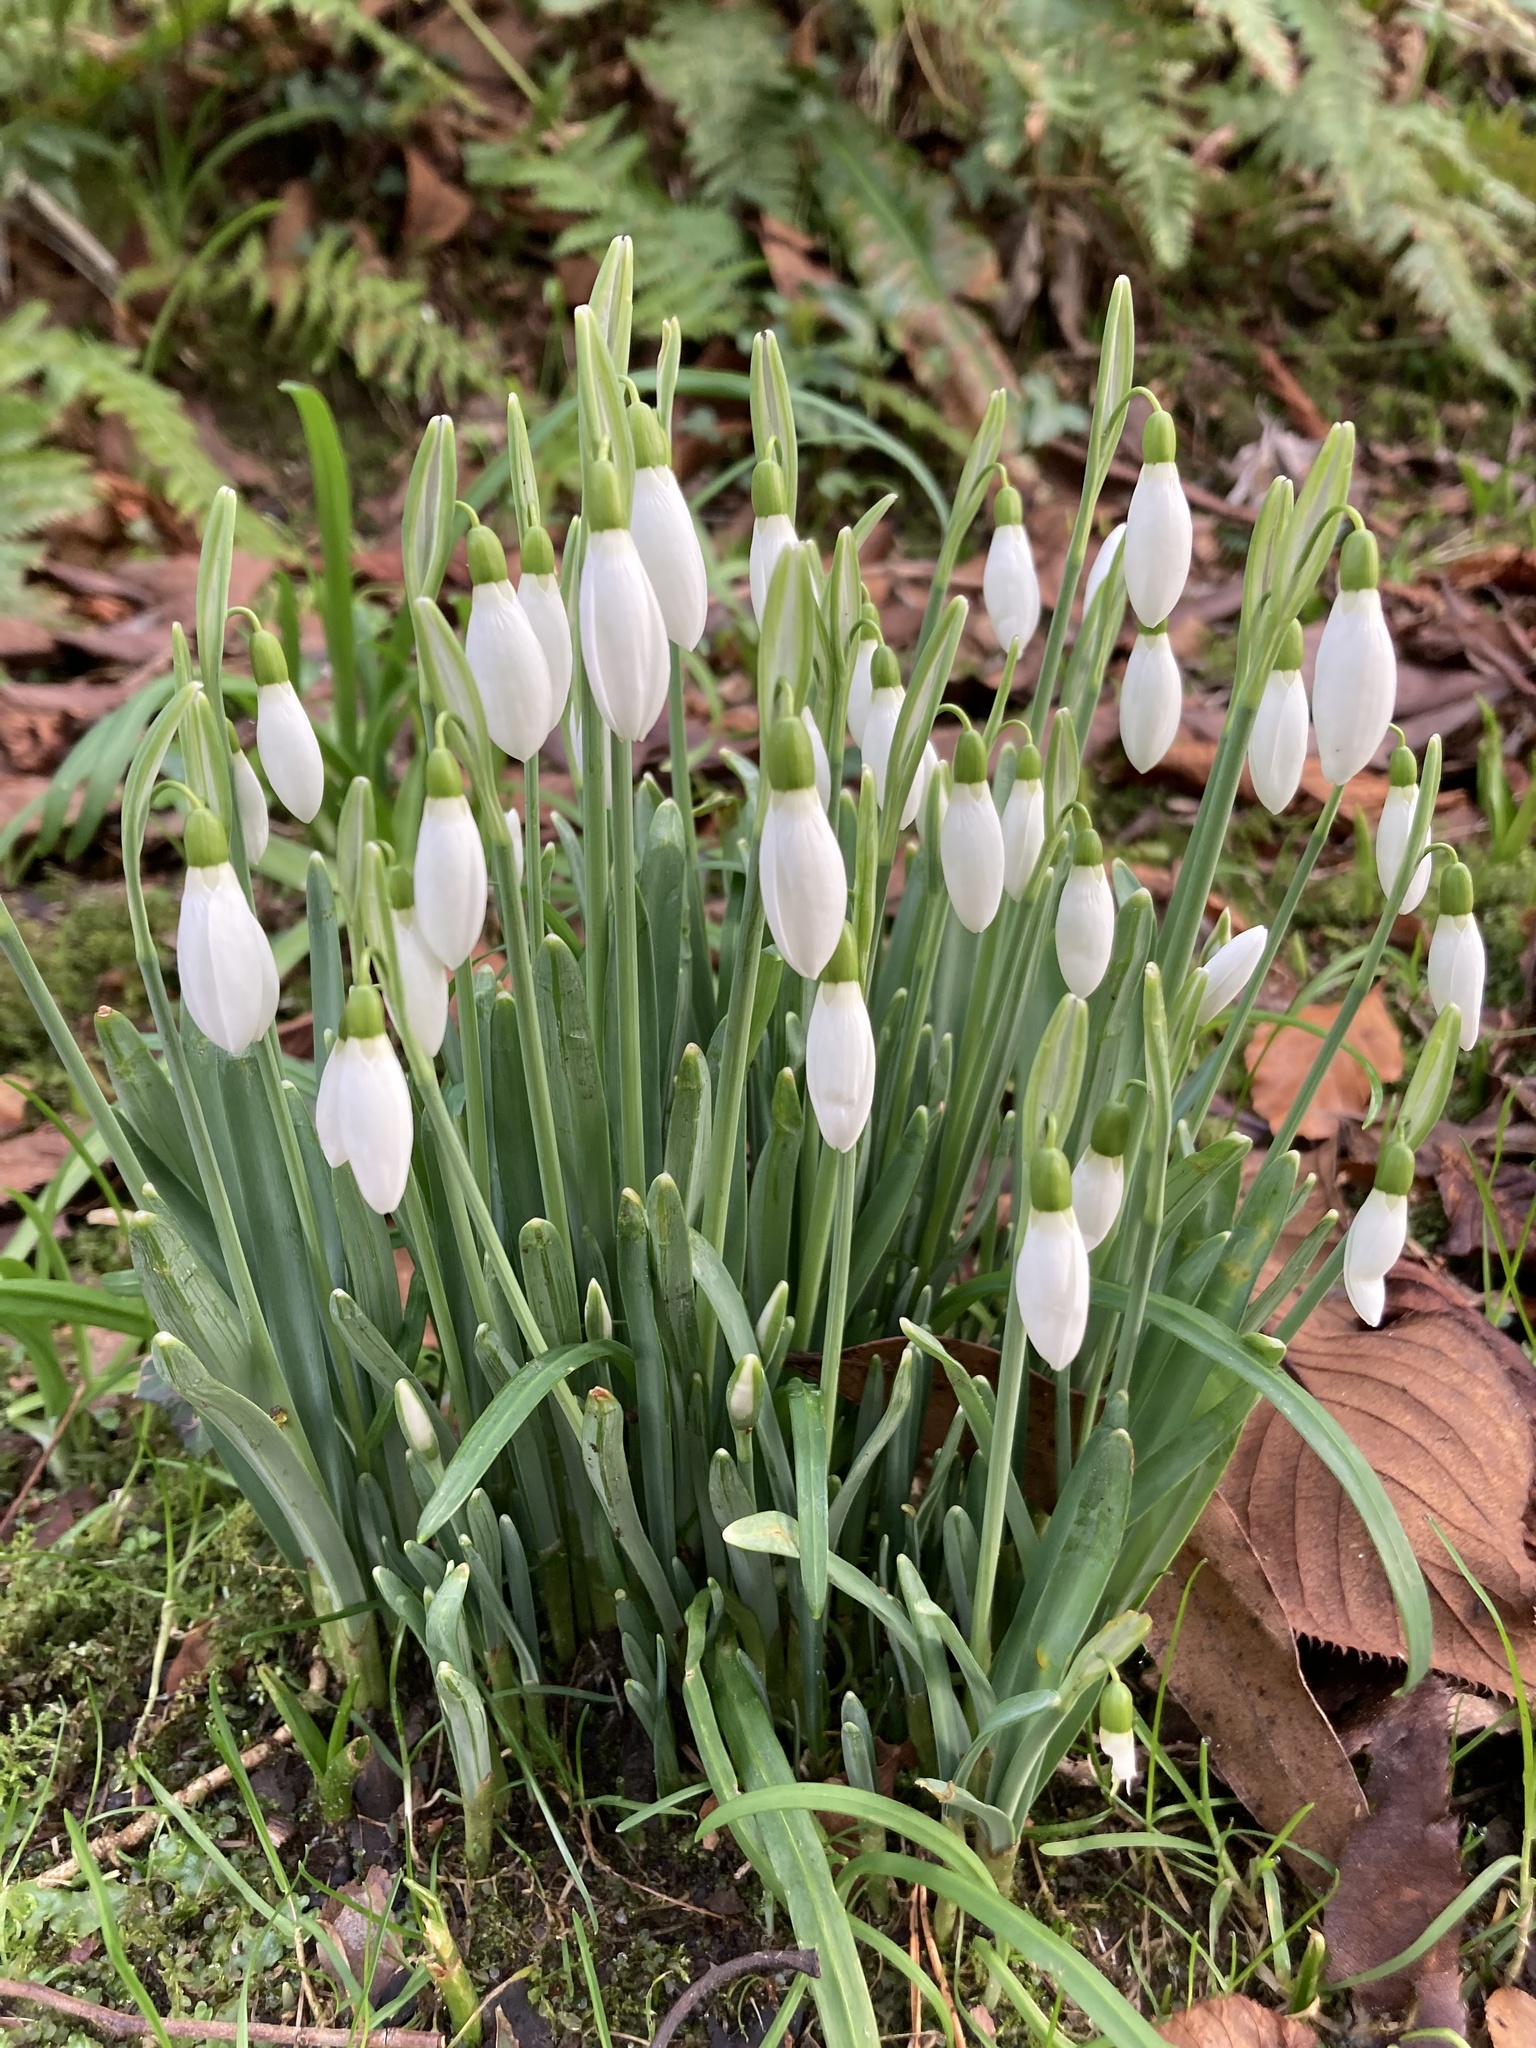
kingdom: Plantae
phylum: Tracheophyta
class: Liliopsida
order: Asparagales
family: Amaryllidaceae
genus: Galanthus
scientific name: Galanthus nivalis
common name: Snowdrop
